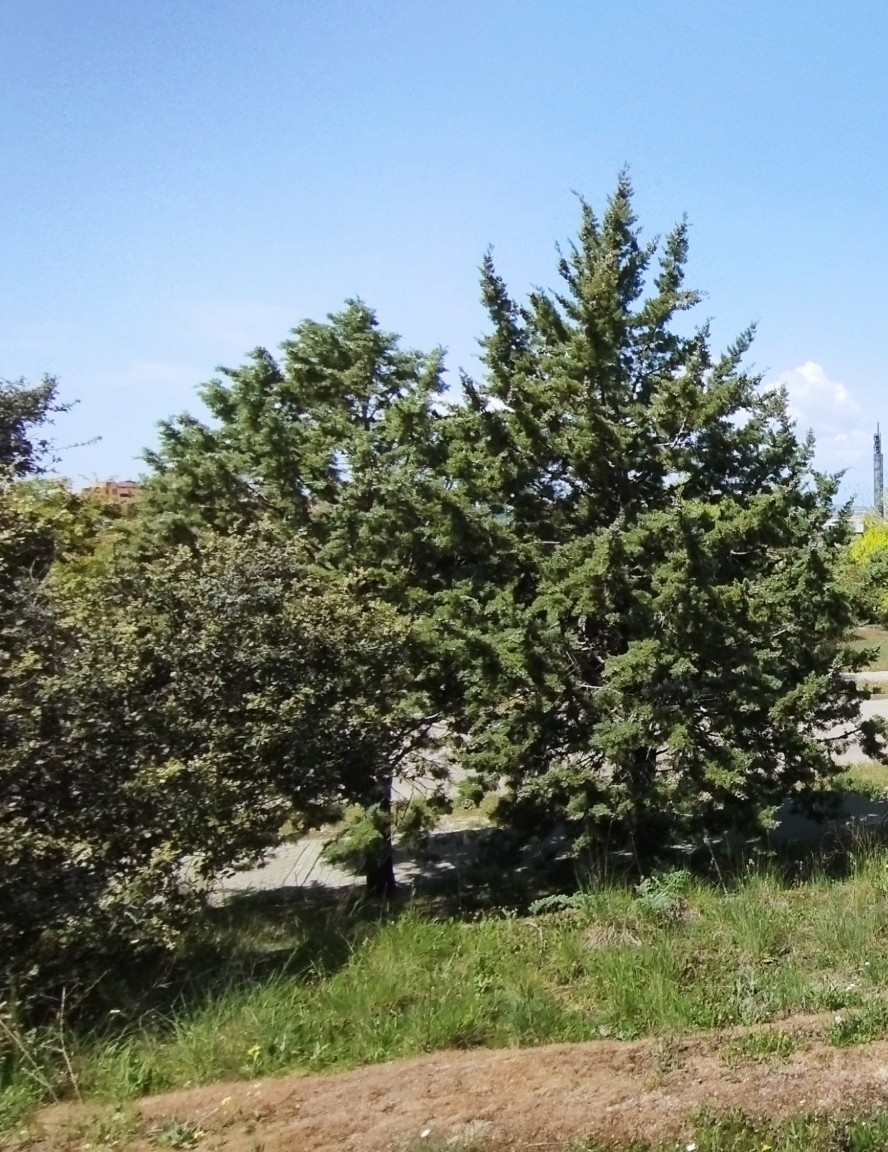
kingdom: Plantae
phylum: Tracheophyta
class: Pinopsida
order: Pinales
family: Cupressaceae
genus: Cupressus
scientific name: Cupressus arizonica
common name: Arizona cypress
